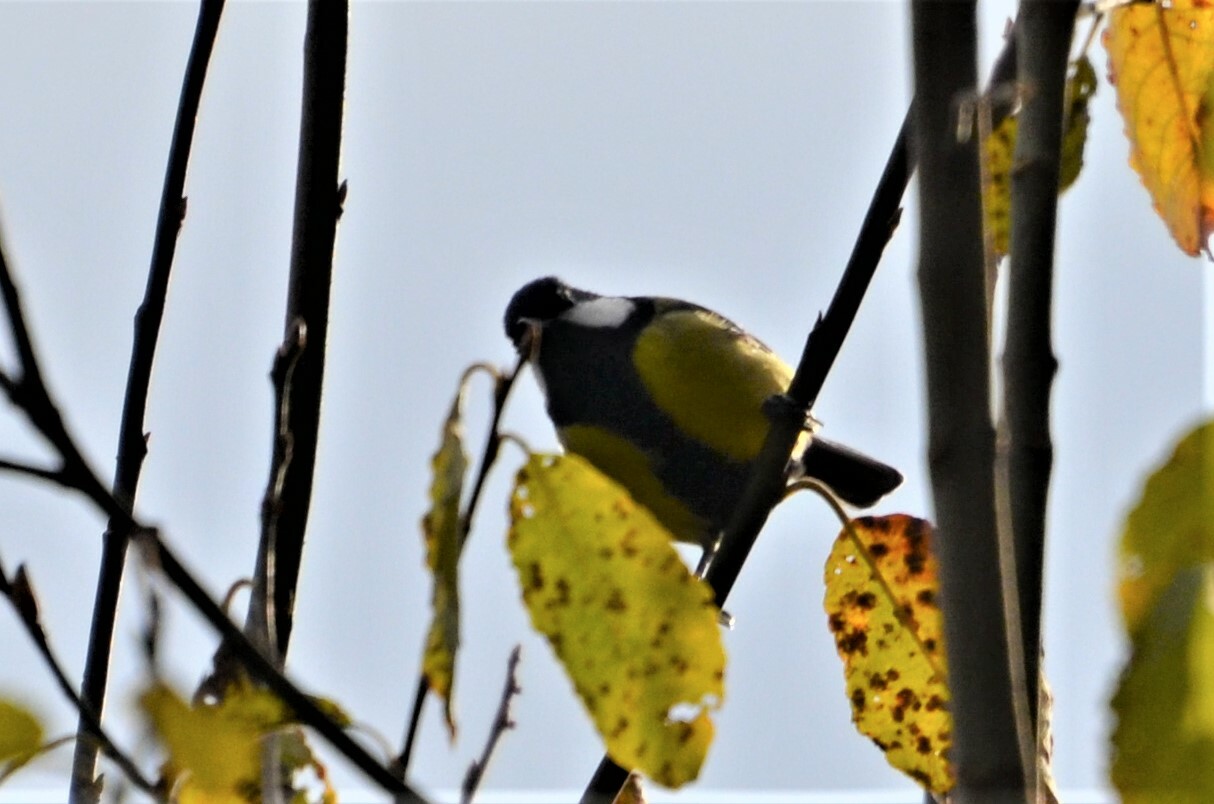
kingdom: Animalia
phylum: Chordata
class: Aves
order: Passeriformes
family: Paridae
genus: Parus
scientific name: Parus major
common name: Great tit
